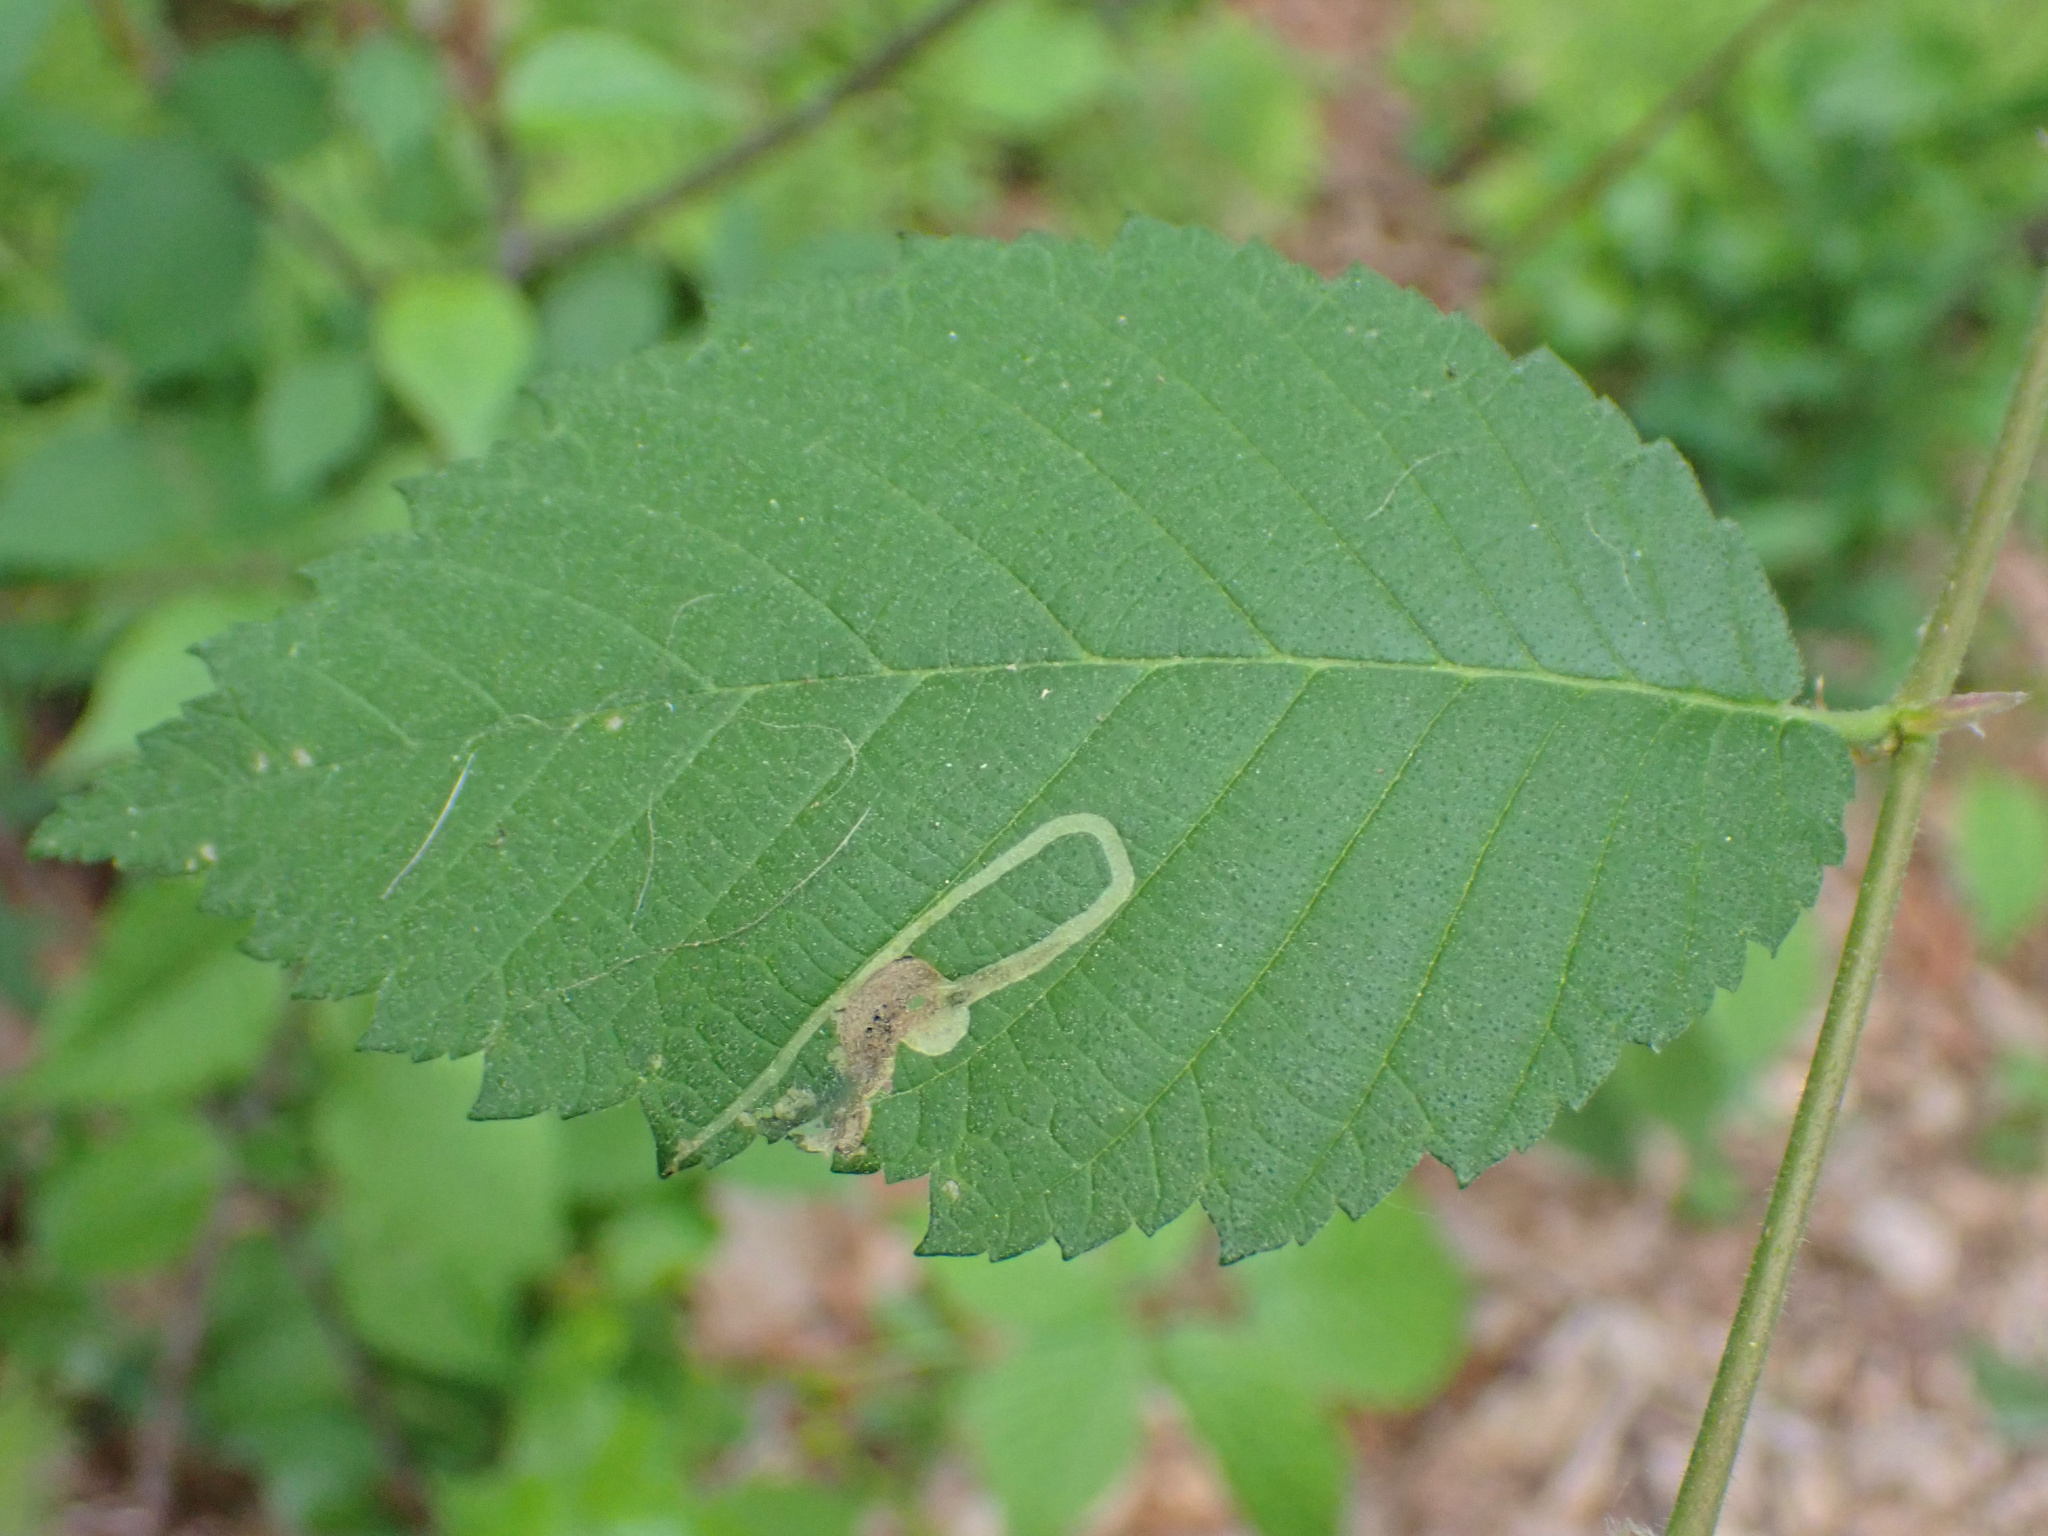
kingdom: Animalia
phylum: Arthropoda
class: Insecta
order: Diptera
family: Agromyzidae
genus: Agromyza
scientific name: Agromyza aristata
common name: Elm agromyzid leafminer
